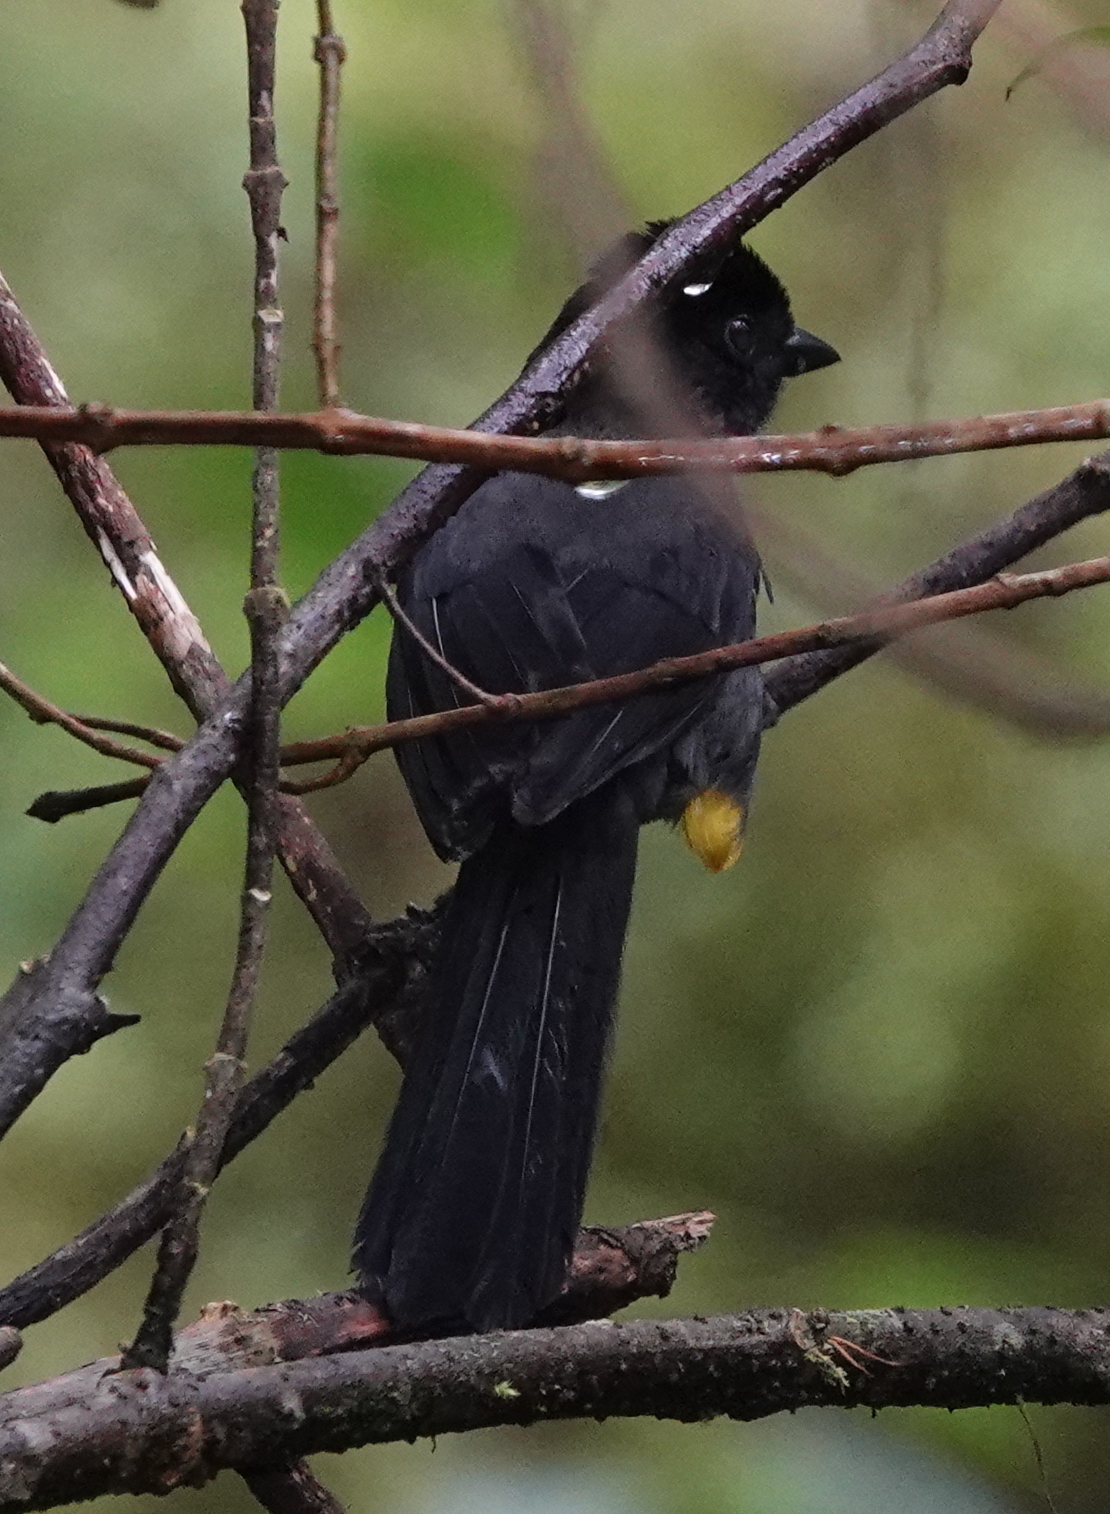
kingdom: Animalia
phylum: Chordata
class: Aves
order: Passeriformes
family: Passerellidae
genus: Atlapetes
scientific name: Atlapetes tibialis
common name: Yellow-thighed brushfinch
